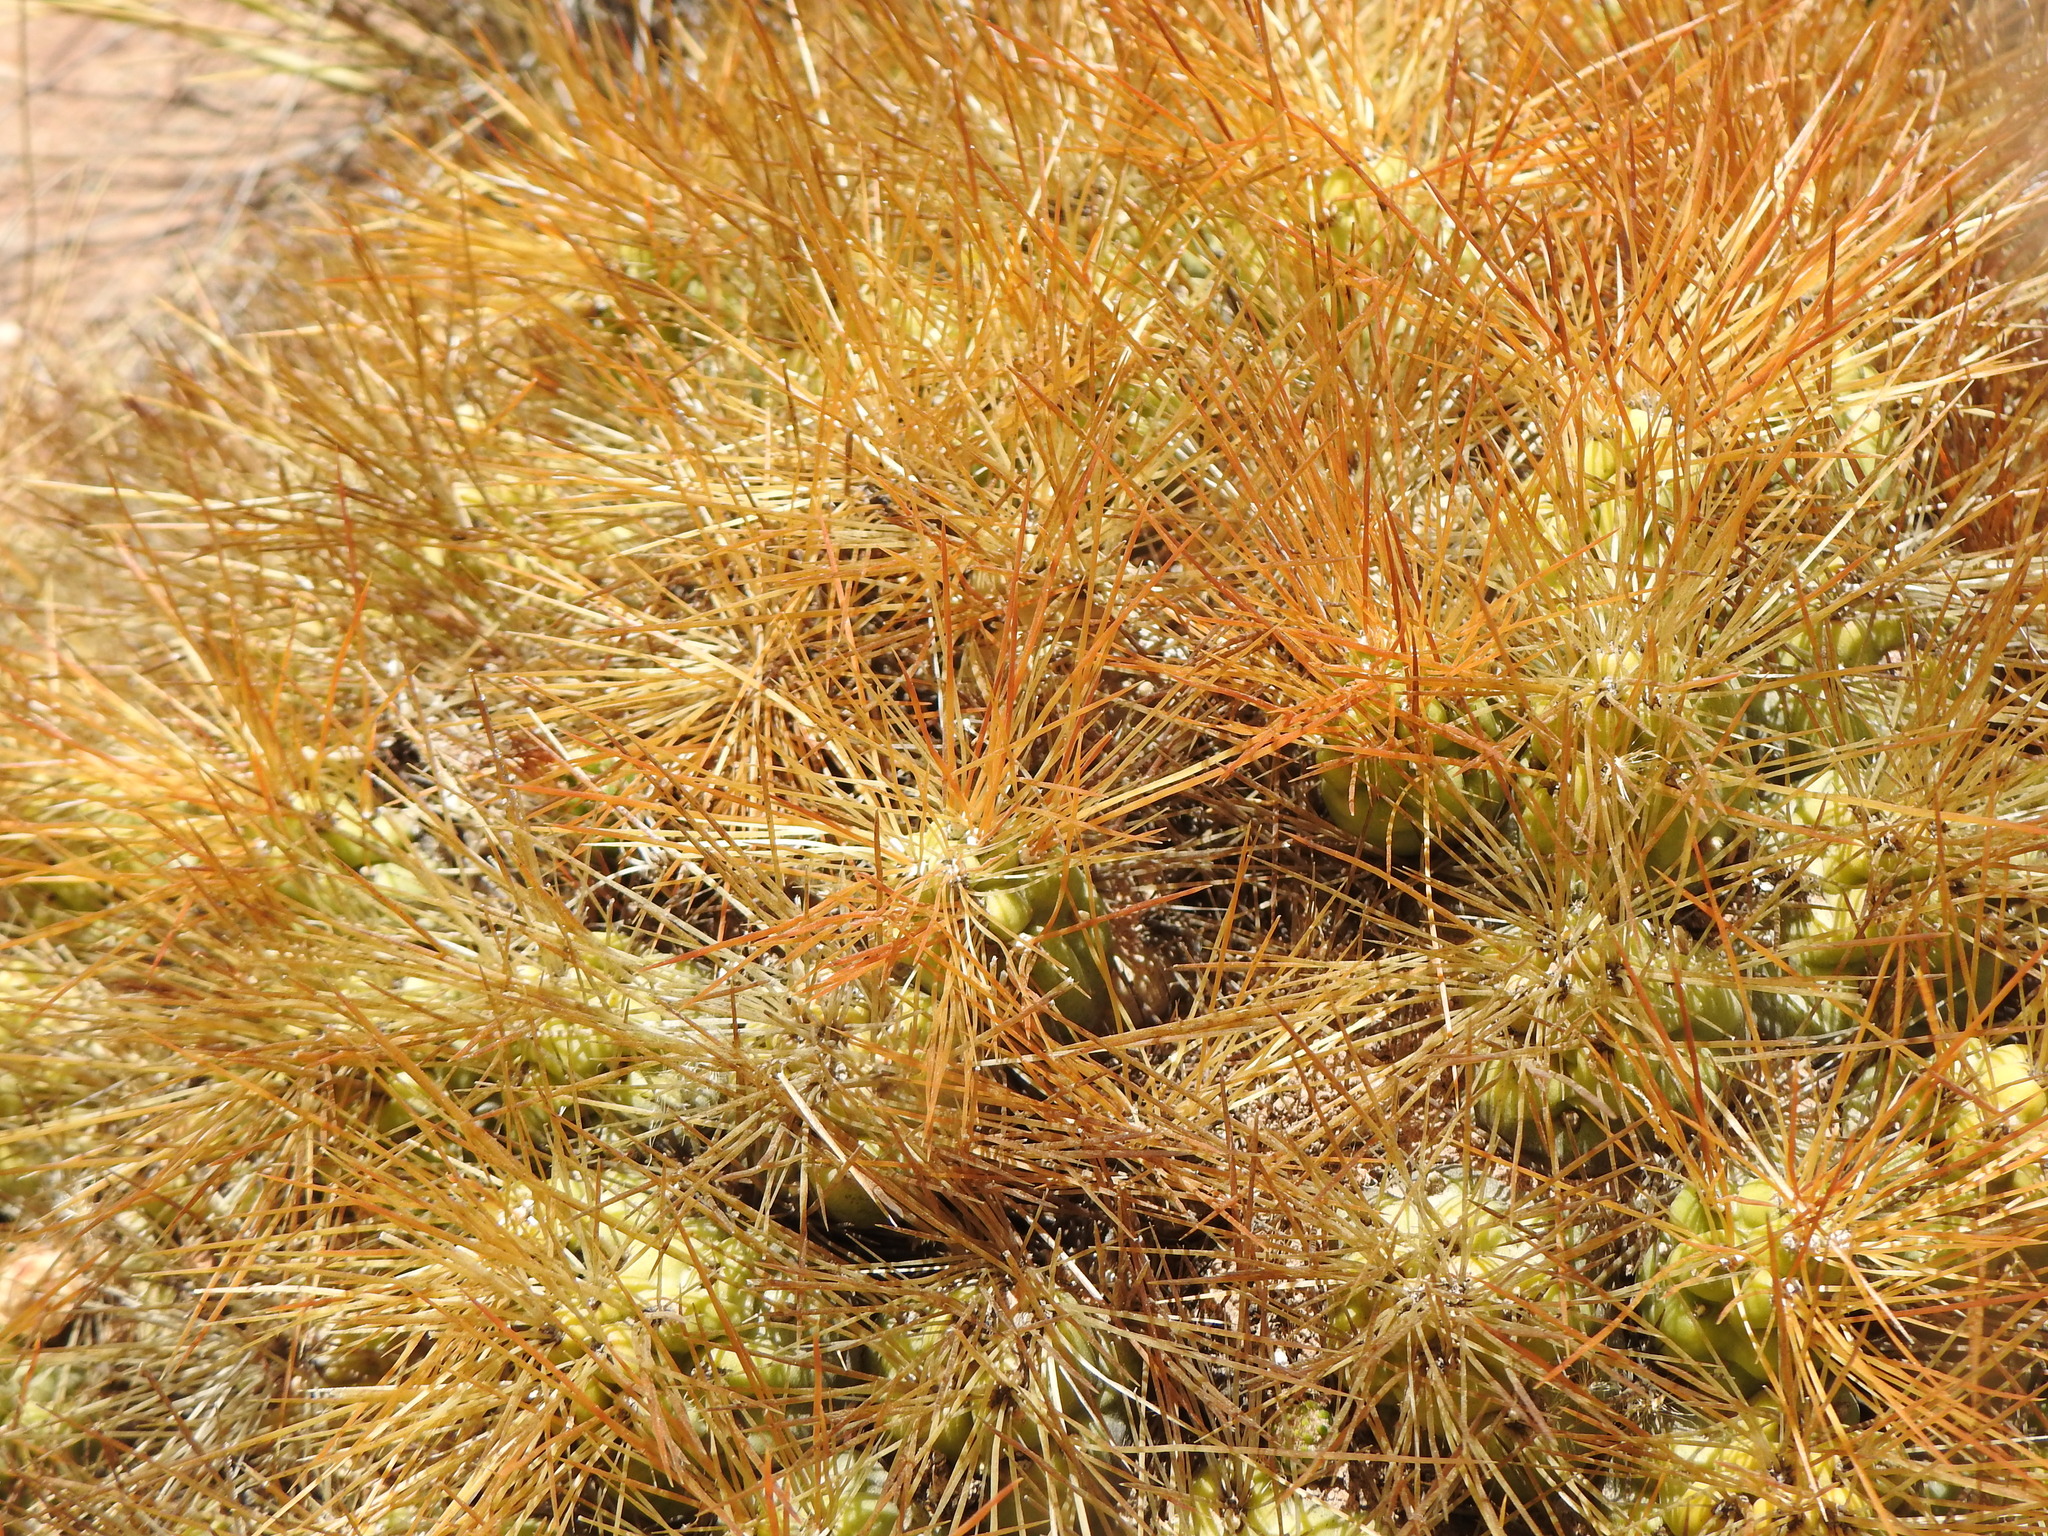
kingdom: Plantae
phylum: Tracheophyta
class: Magnoliopsida
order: Caryophyllales
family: Cactaceae
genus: Cumulopuntia
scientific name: Cumulopuntia boliviana
